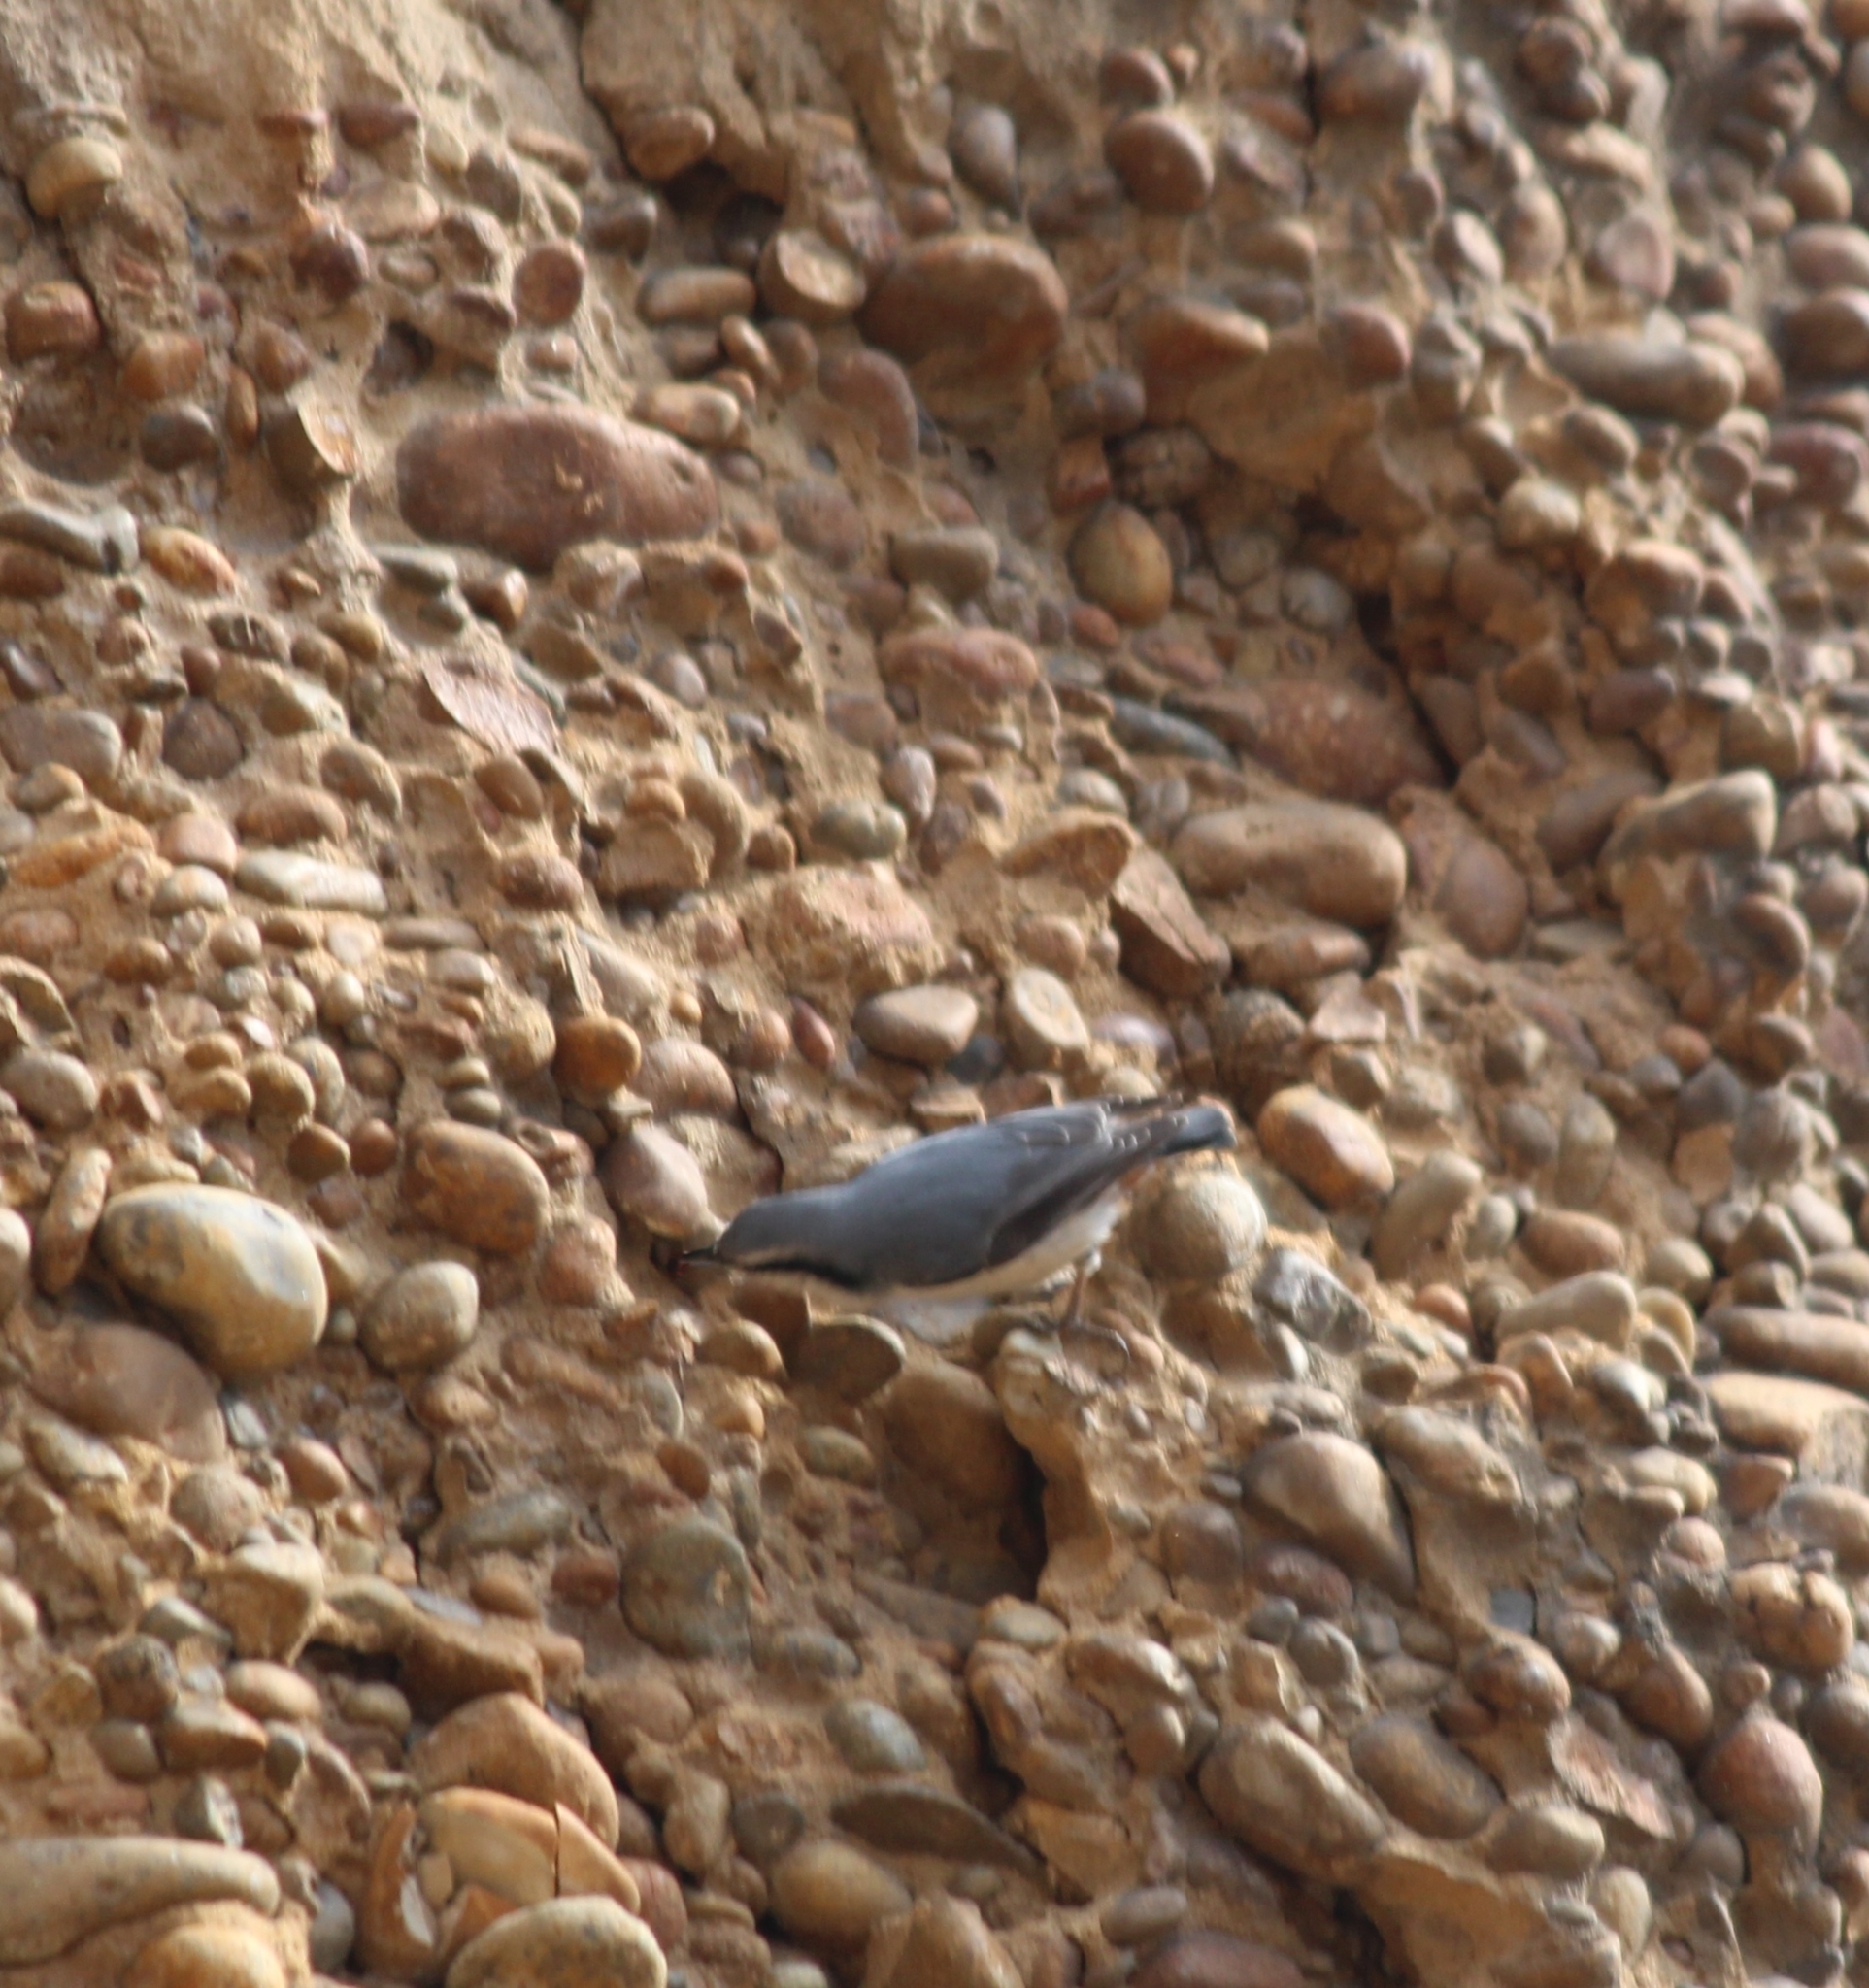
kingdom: Animalia
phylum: Chordata
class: Aves
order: Passeriformes
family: Sittidae
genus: Sitta
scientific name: Sitta europaea
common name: Eurasian nuthatch
